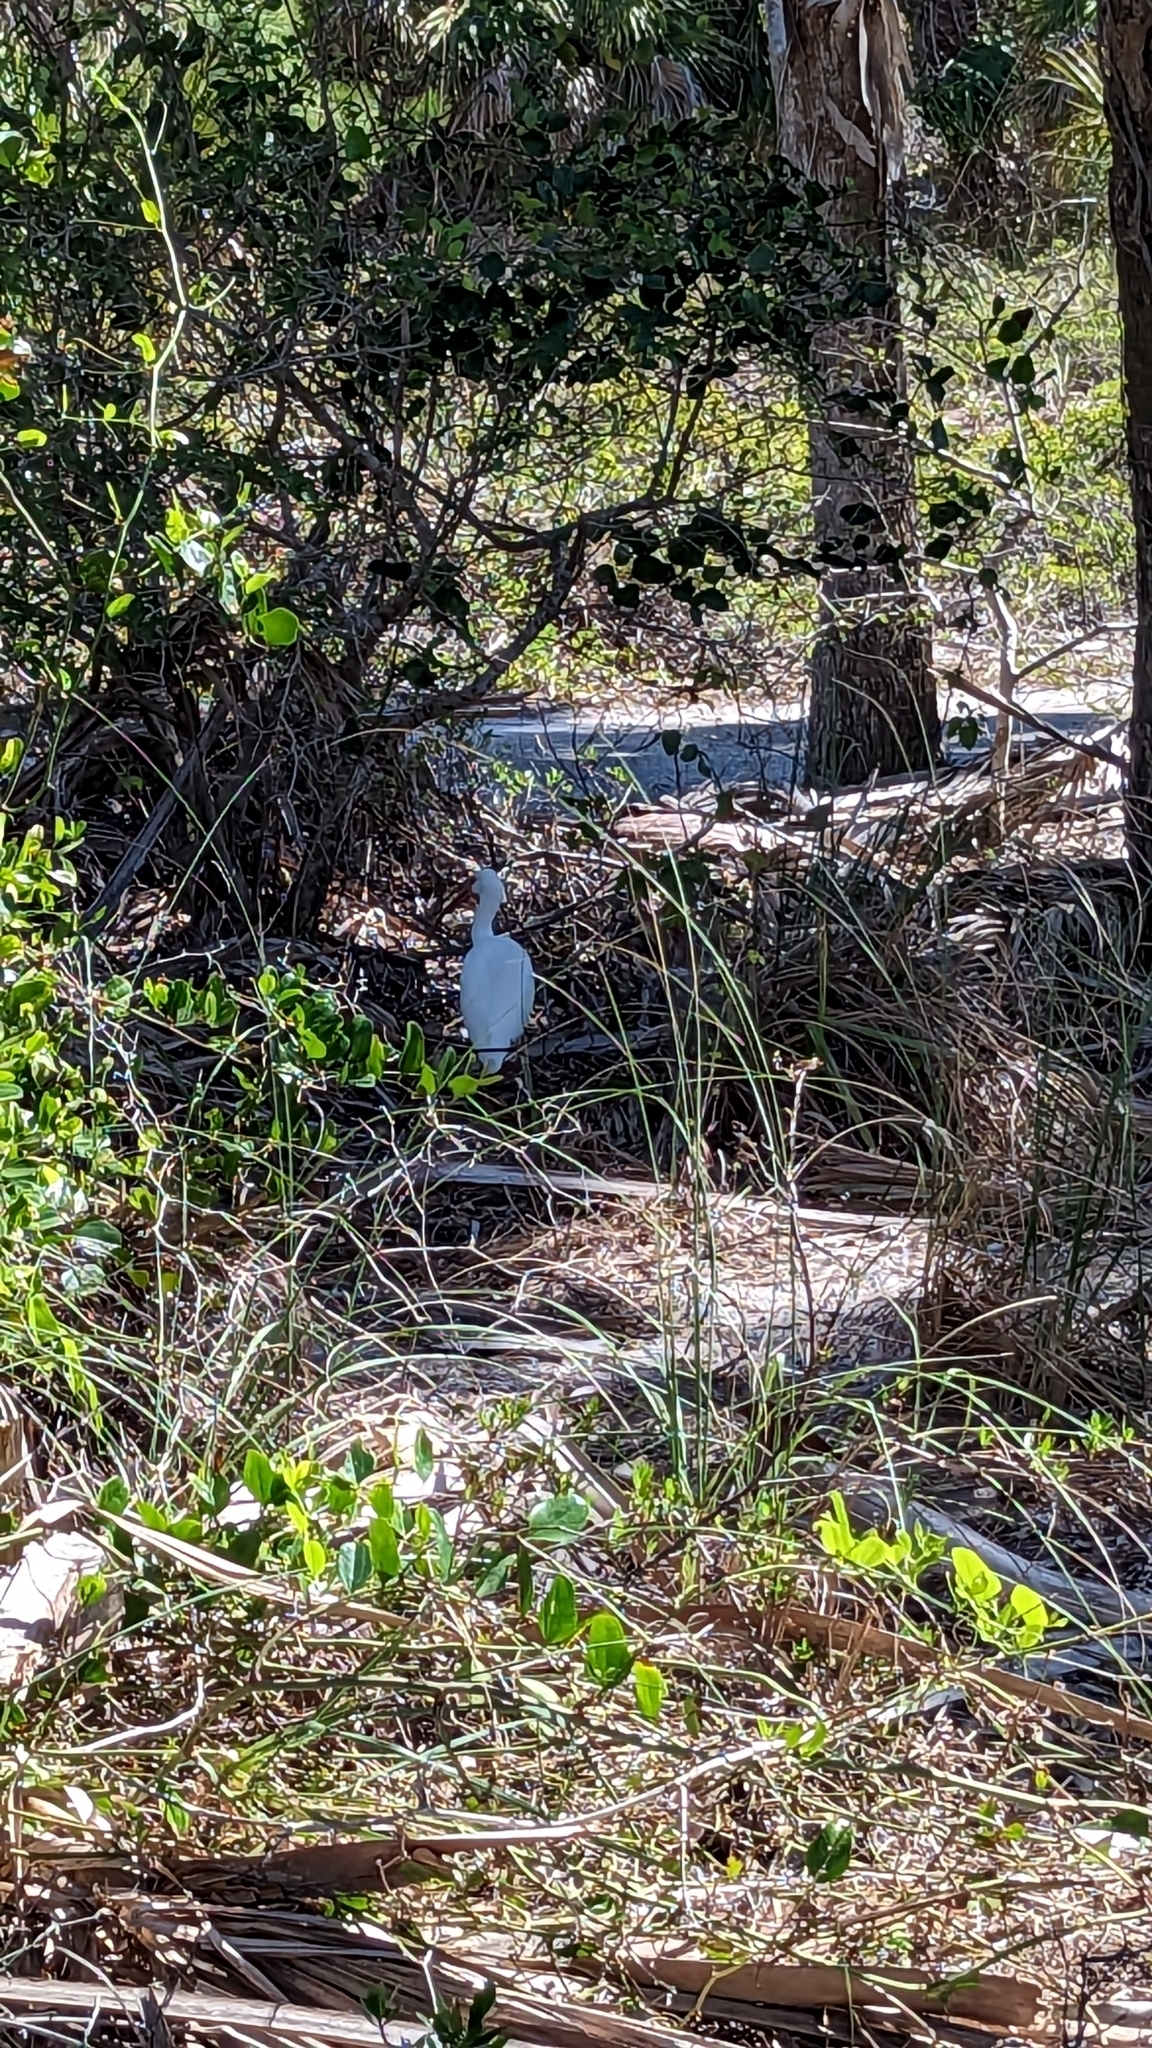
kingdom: Animalia
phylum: Chordata
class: Aves
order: Pelecaniformes
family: Threskiornithidae
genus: Eudocimus
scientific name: Eudocimus albus
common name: White ibis
